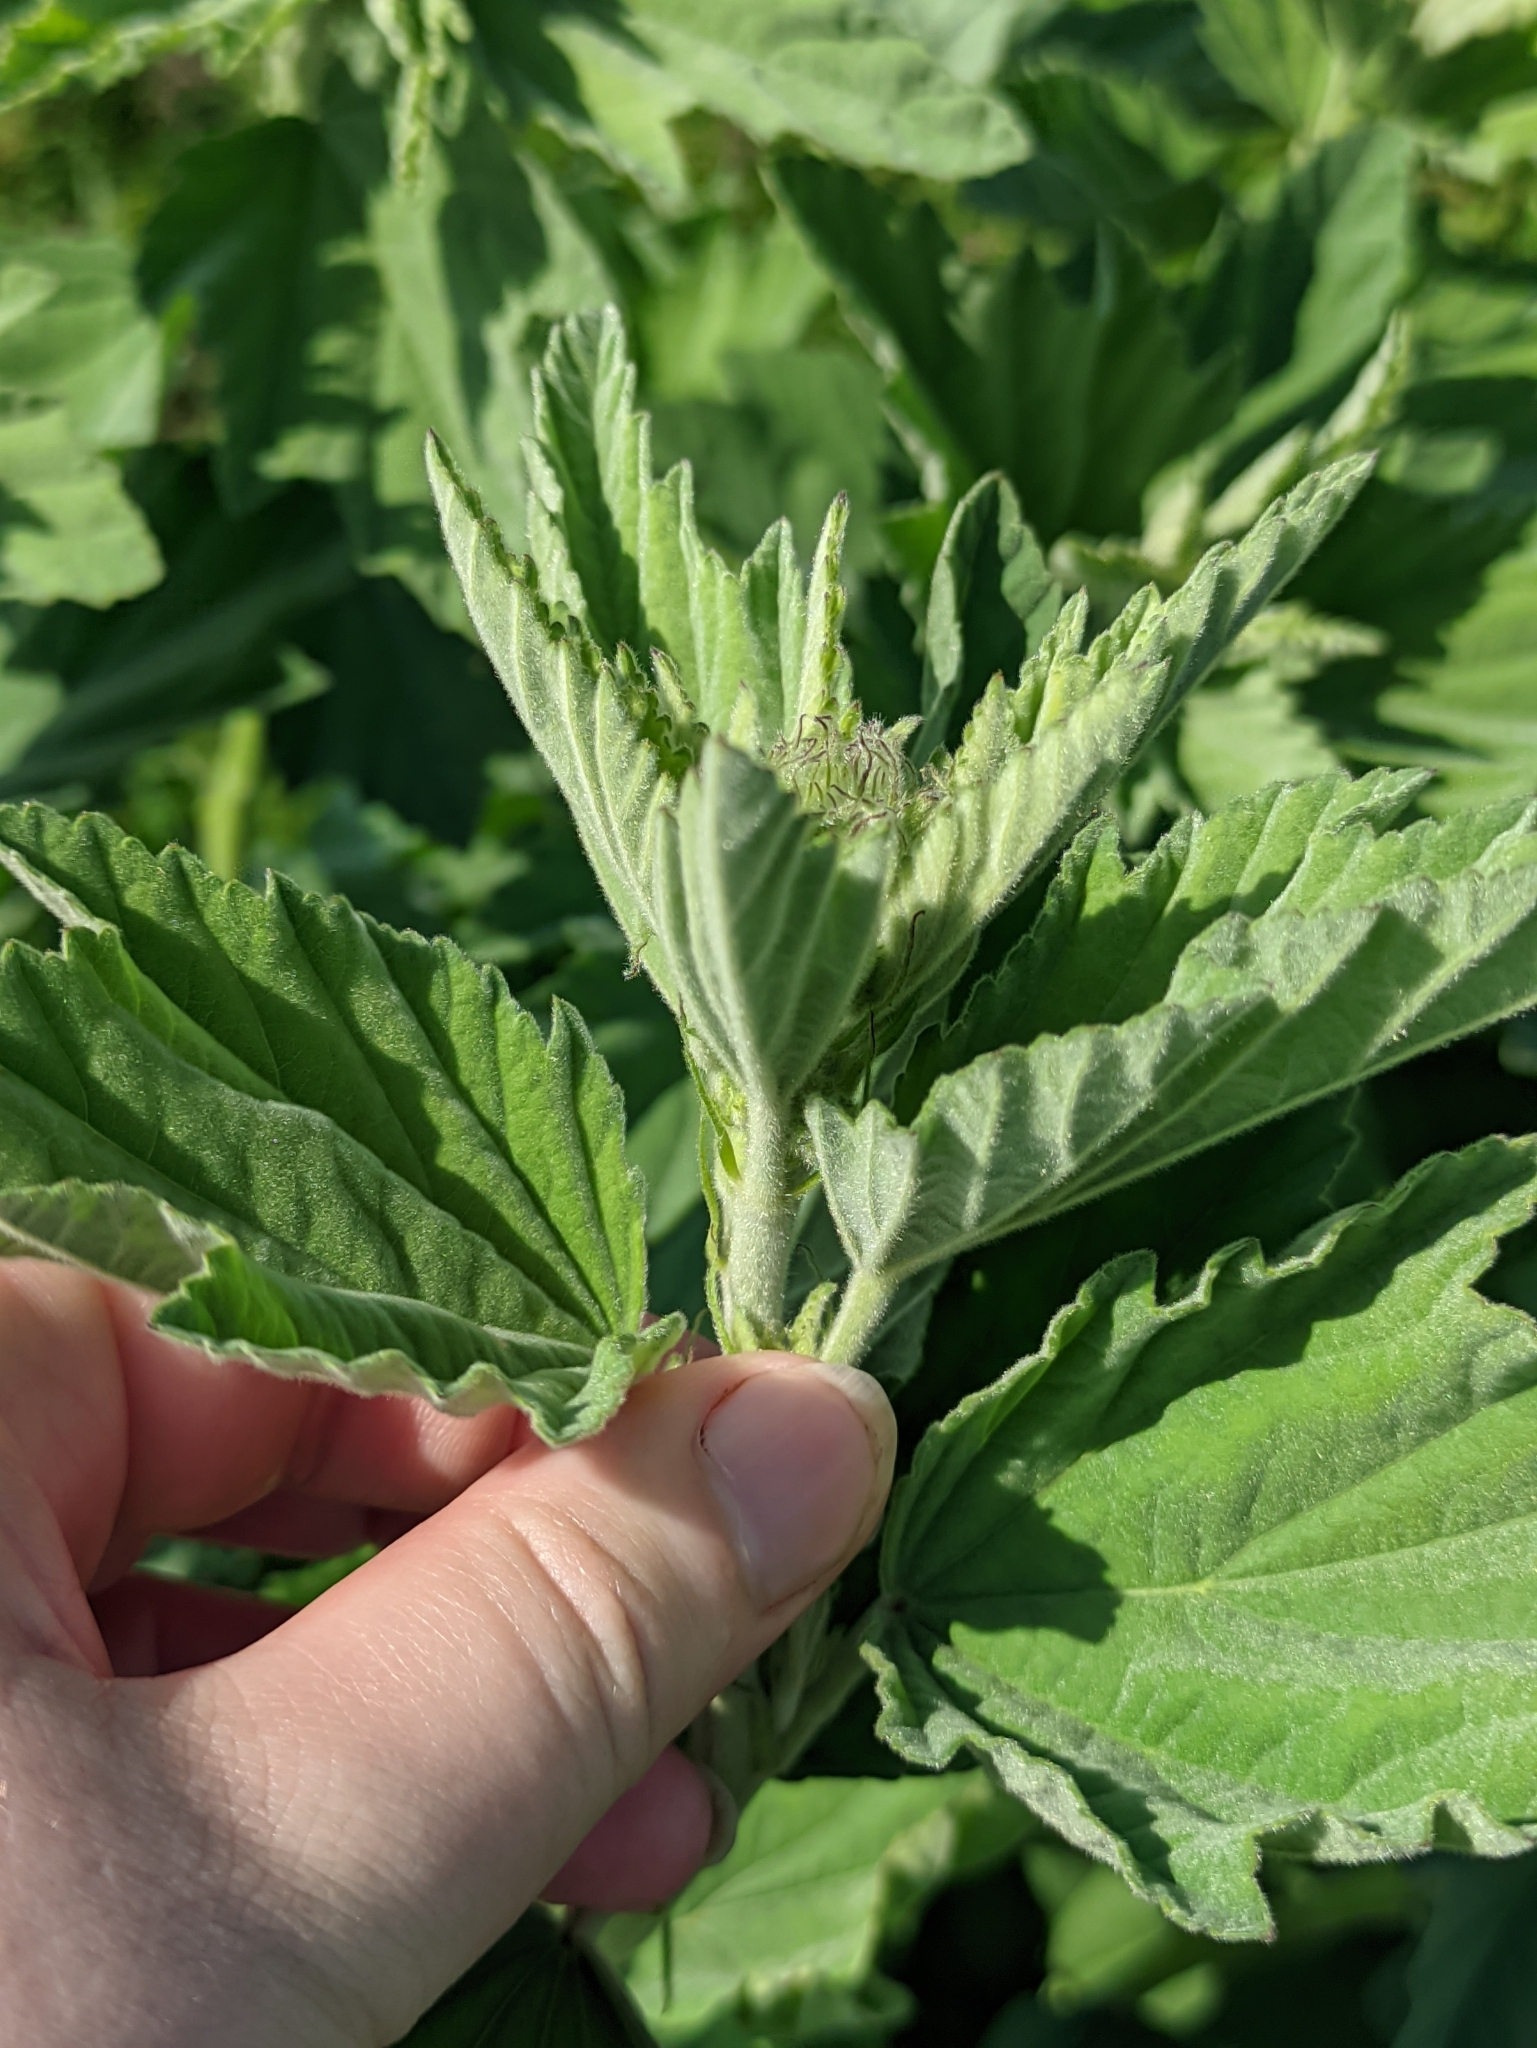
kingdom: Plantae
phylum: Tracheophyta
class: Magnoliopsida
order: Malvales
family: Malvaceae
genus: Althaea
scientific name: Althaea officinalis
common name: Marsh-mallow
